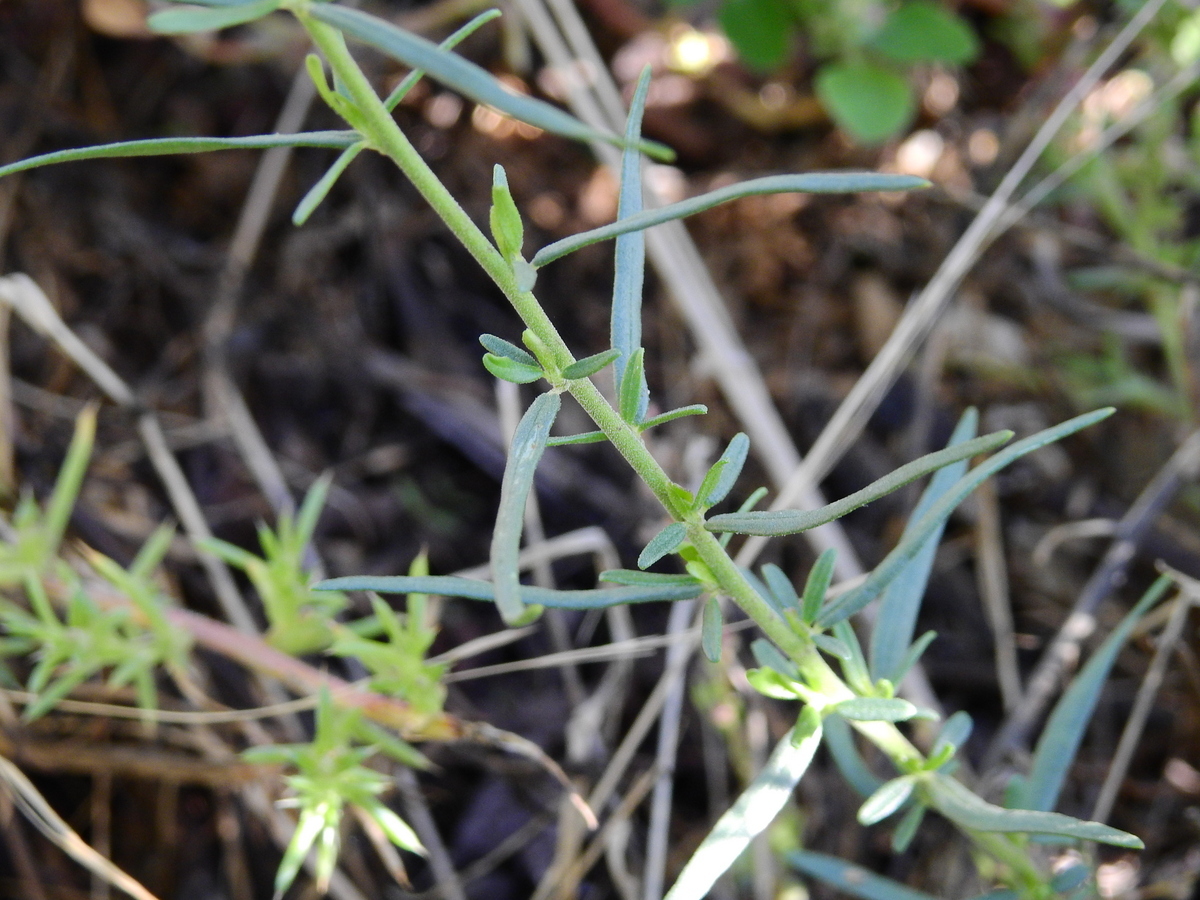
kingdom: Plantae
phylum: Tracheophyta
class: Magnoliopsida
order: Fabales
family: Polygalaceae
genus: Monnina
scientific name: Monnina dictyocarpa
